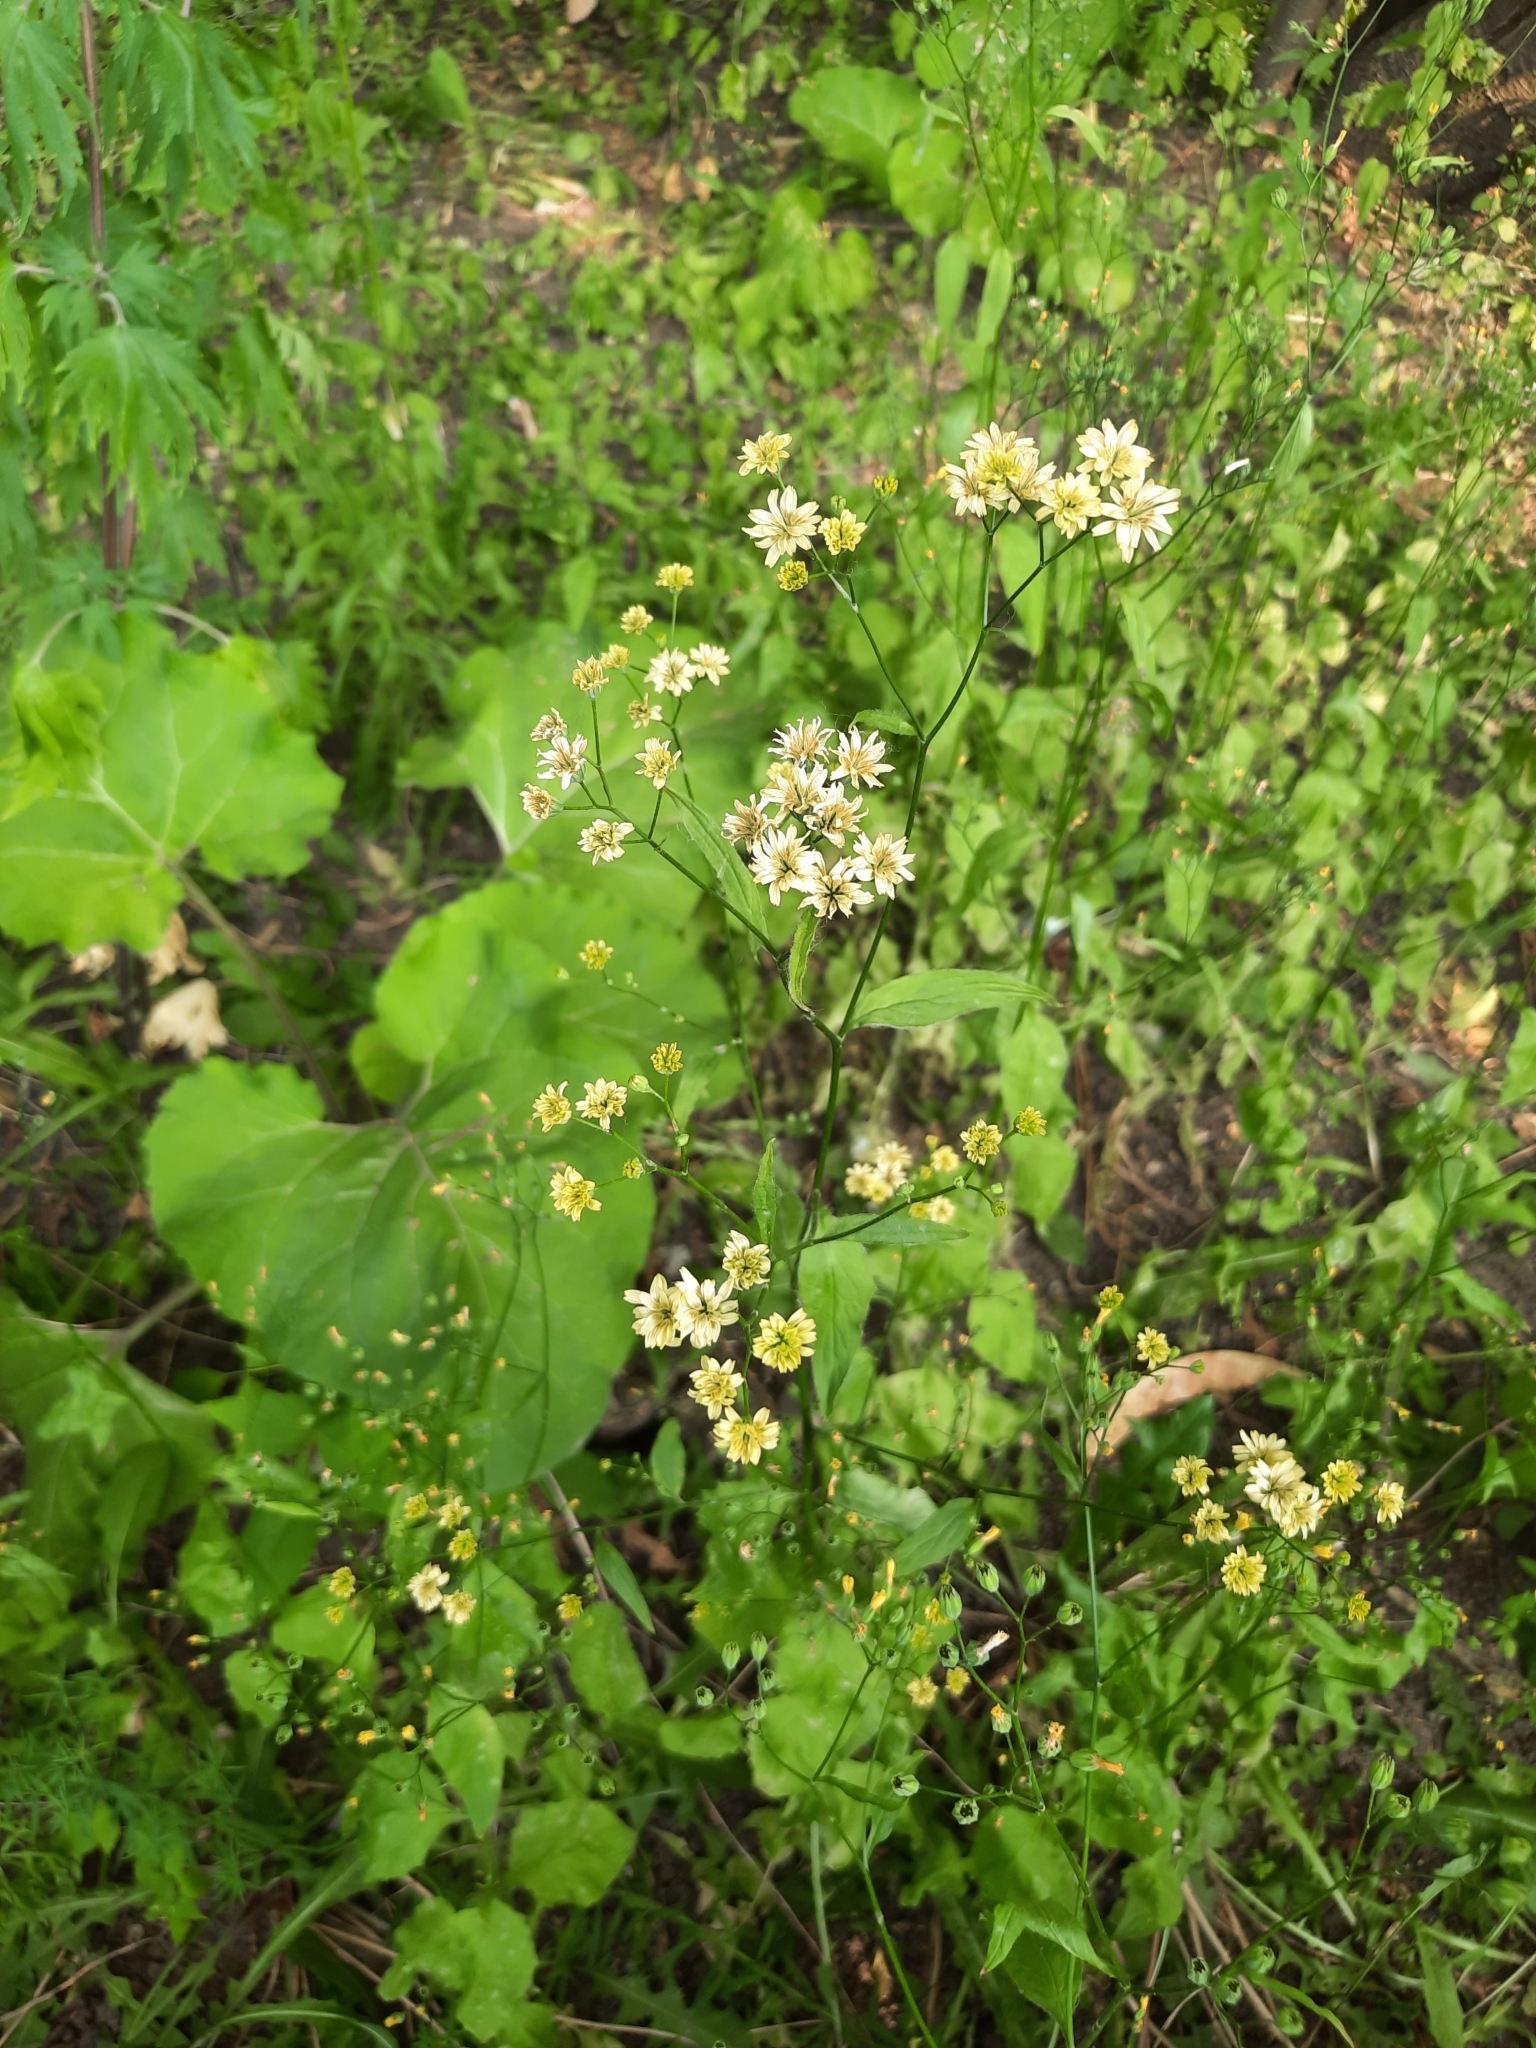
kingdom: Plantae
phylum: Tracheophyta
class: Magnoliopsida
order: Asterales
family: Asteraceae
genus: Lapsana
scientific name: Lapsana communis
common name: Nipplewort
